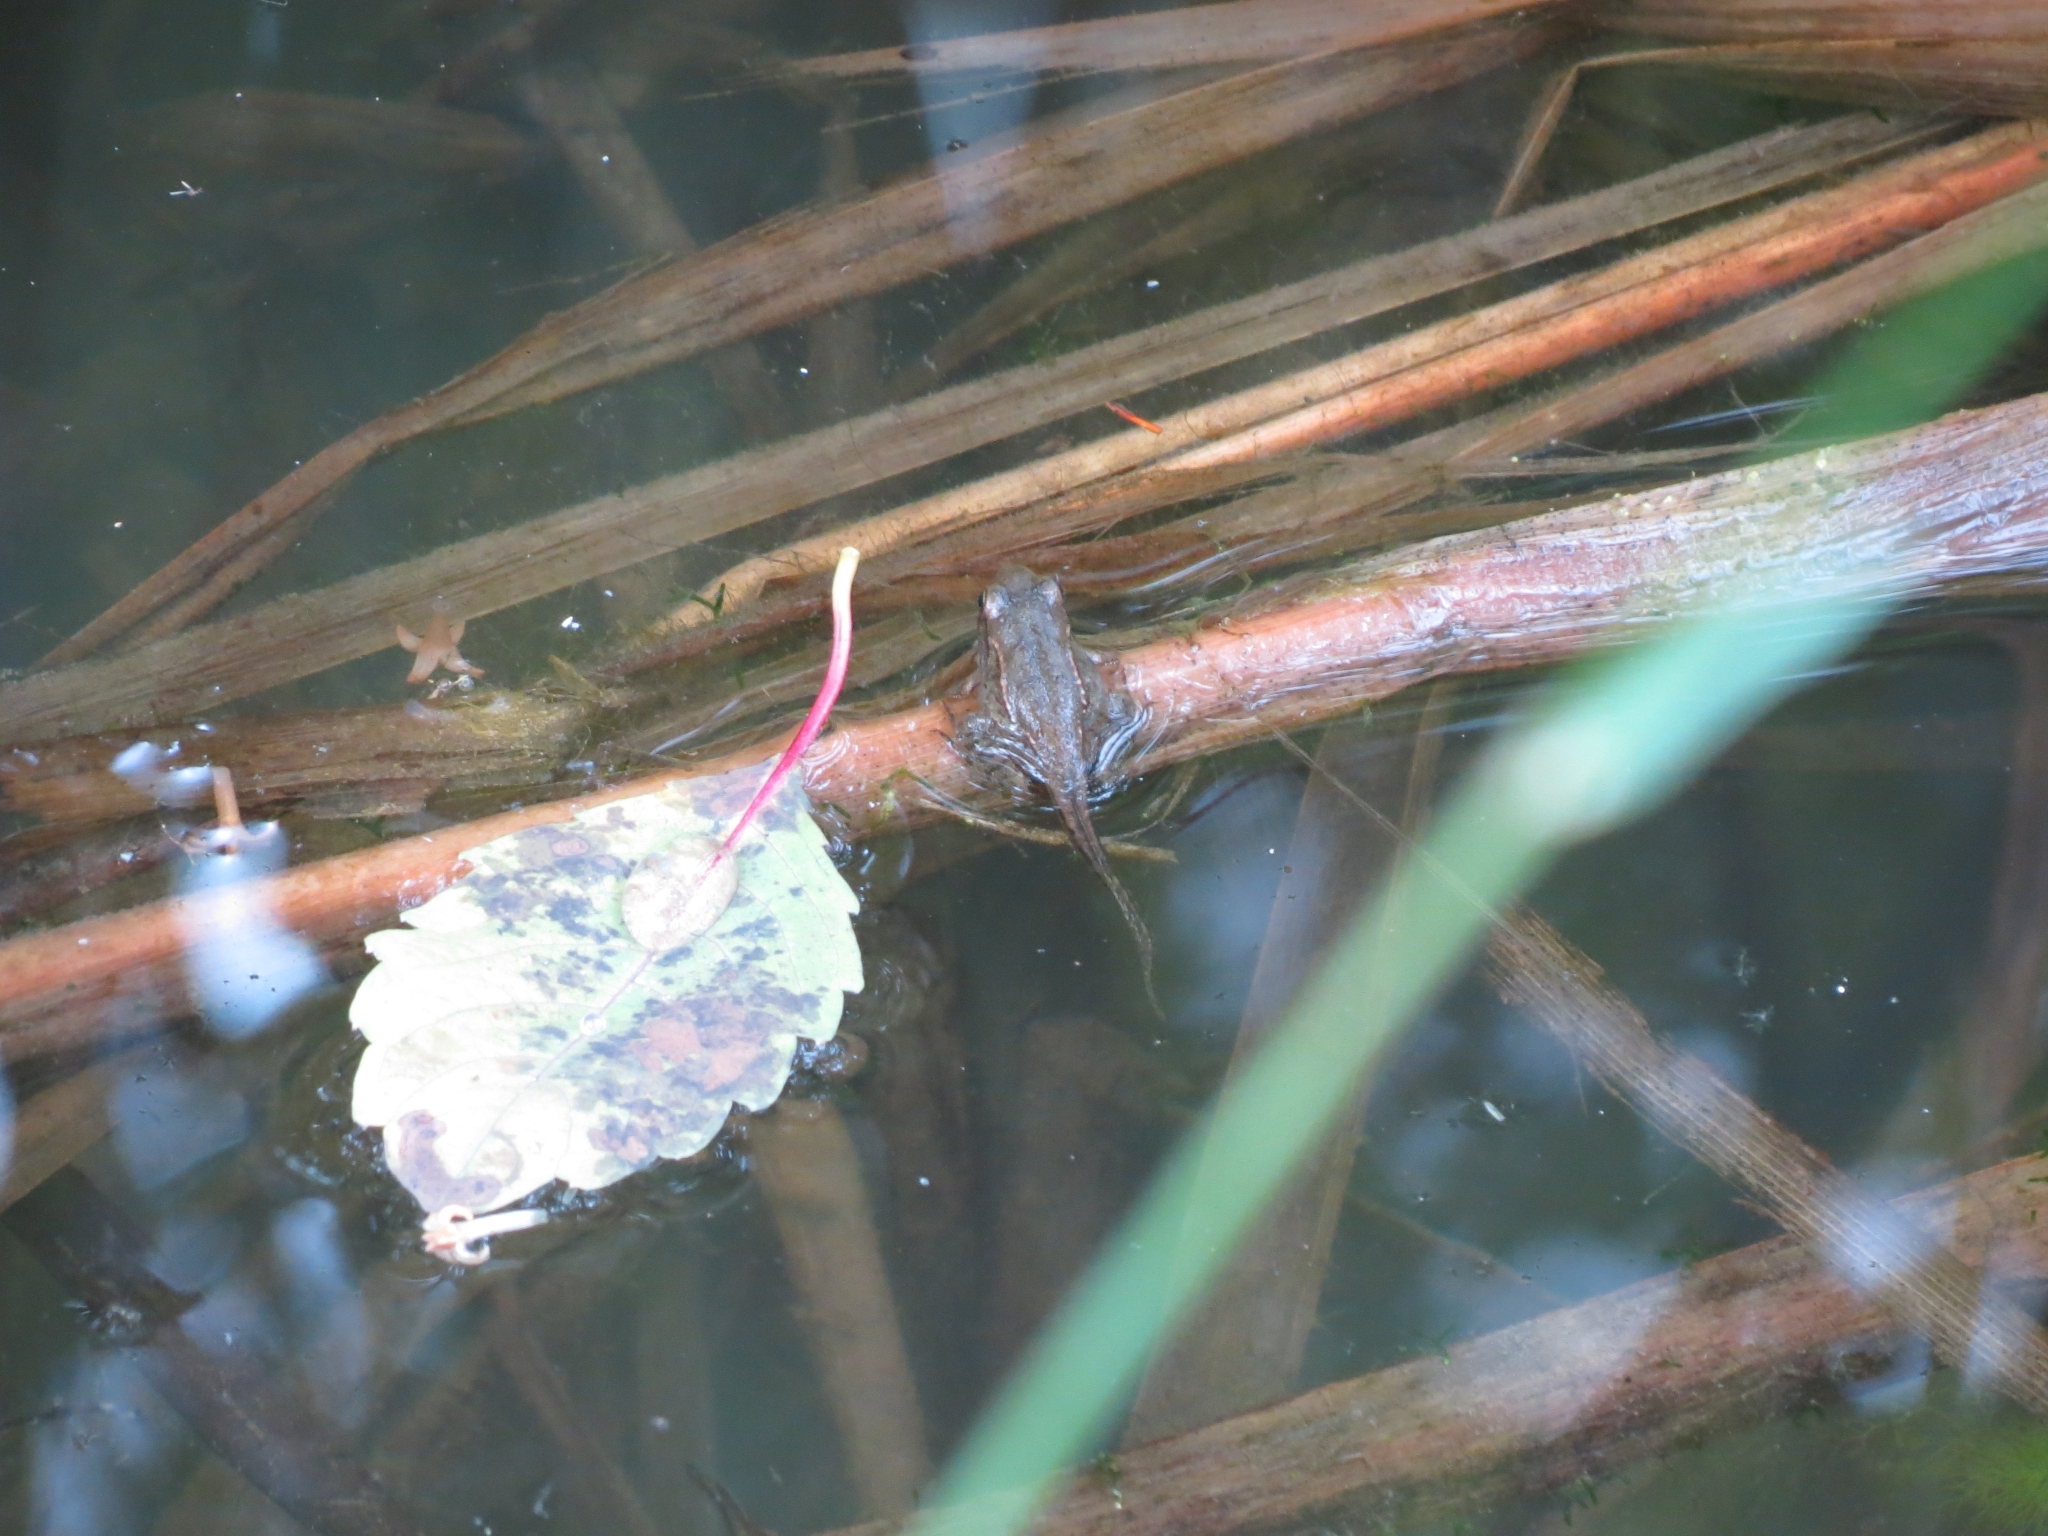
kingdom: Animalia
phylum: Chordata
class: Amphibia
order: Anura
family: Ranidae
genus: Lithobates
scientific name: Lithobates sylvaticus
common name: Wood frog
